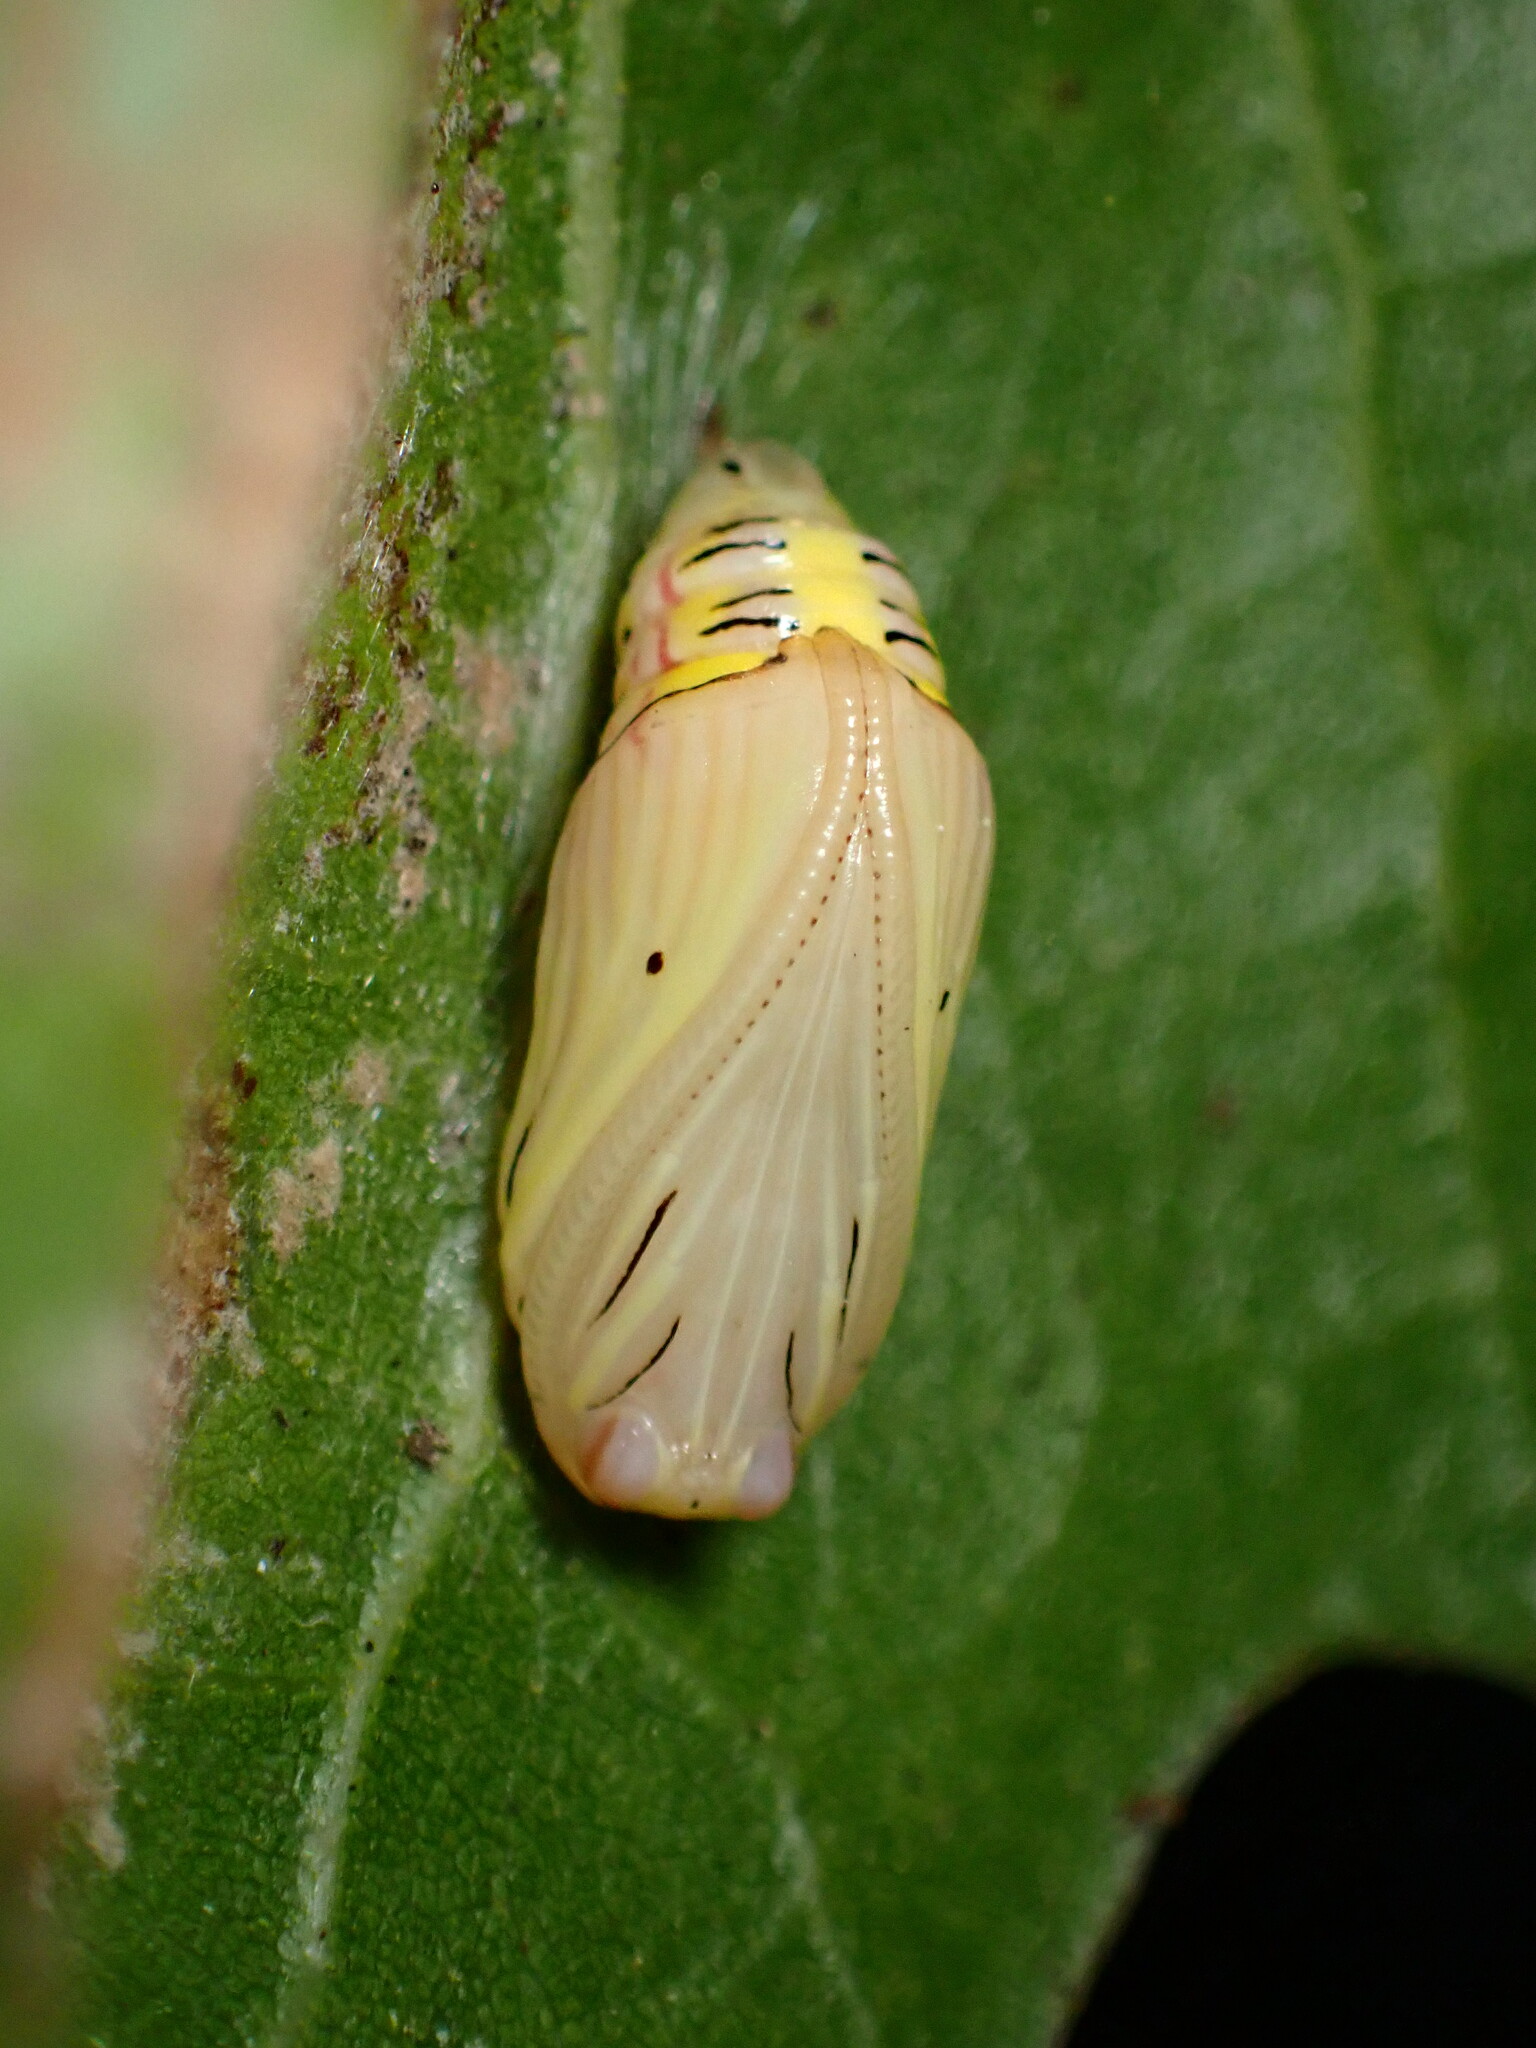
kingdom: Animalia
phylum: Arthropoda
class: Insecta
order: Lepidoptera
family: Notodontidae
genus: Phryganidia
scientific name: Phryganidia californica
